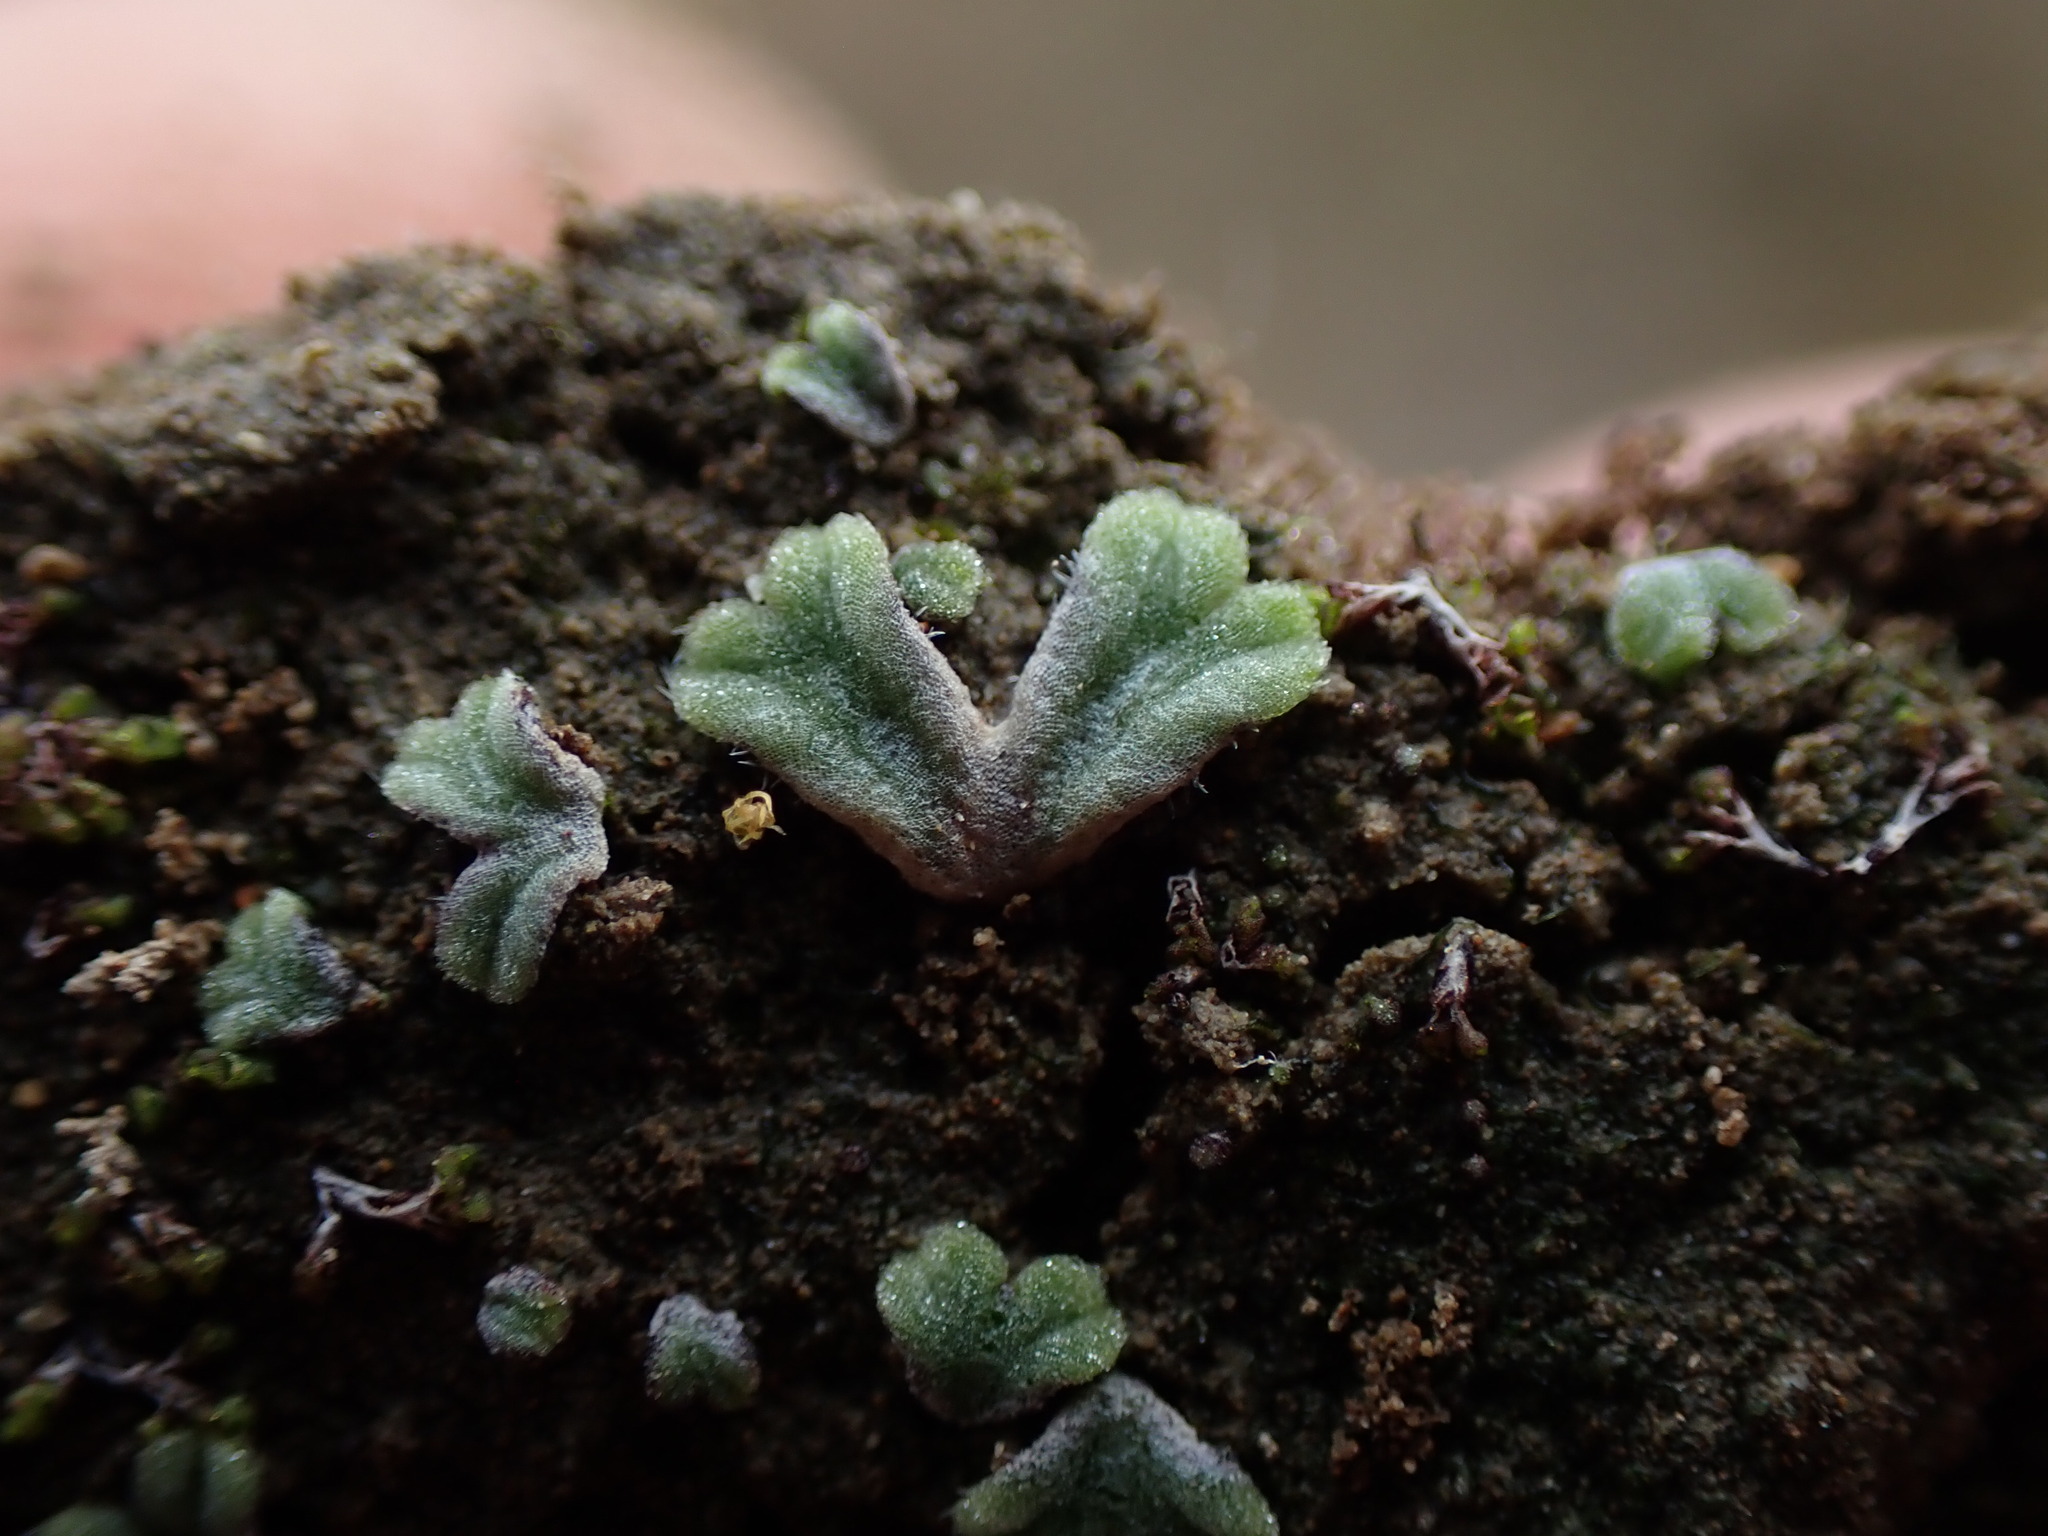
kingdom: Plantae
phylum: Marchantiophyta
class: Marchantiopsida
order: Marchantiales
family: Ricciaceae
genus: Riccia
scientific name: Riccia beyrichiana
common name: Purple crystalwort
